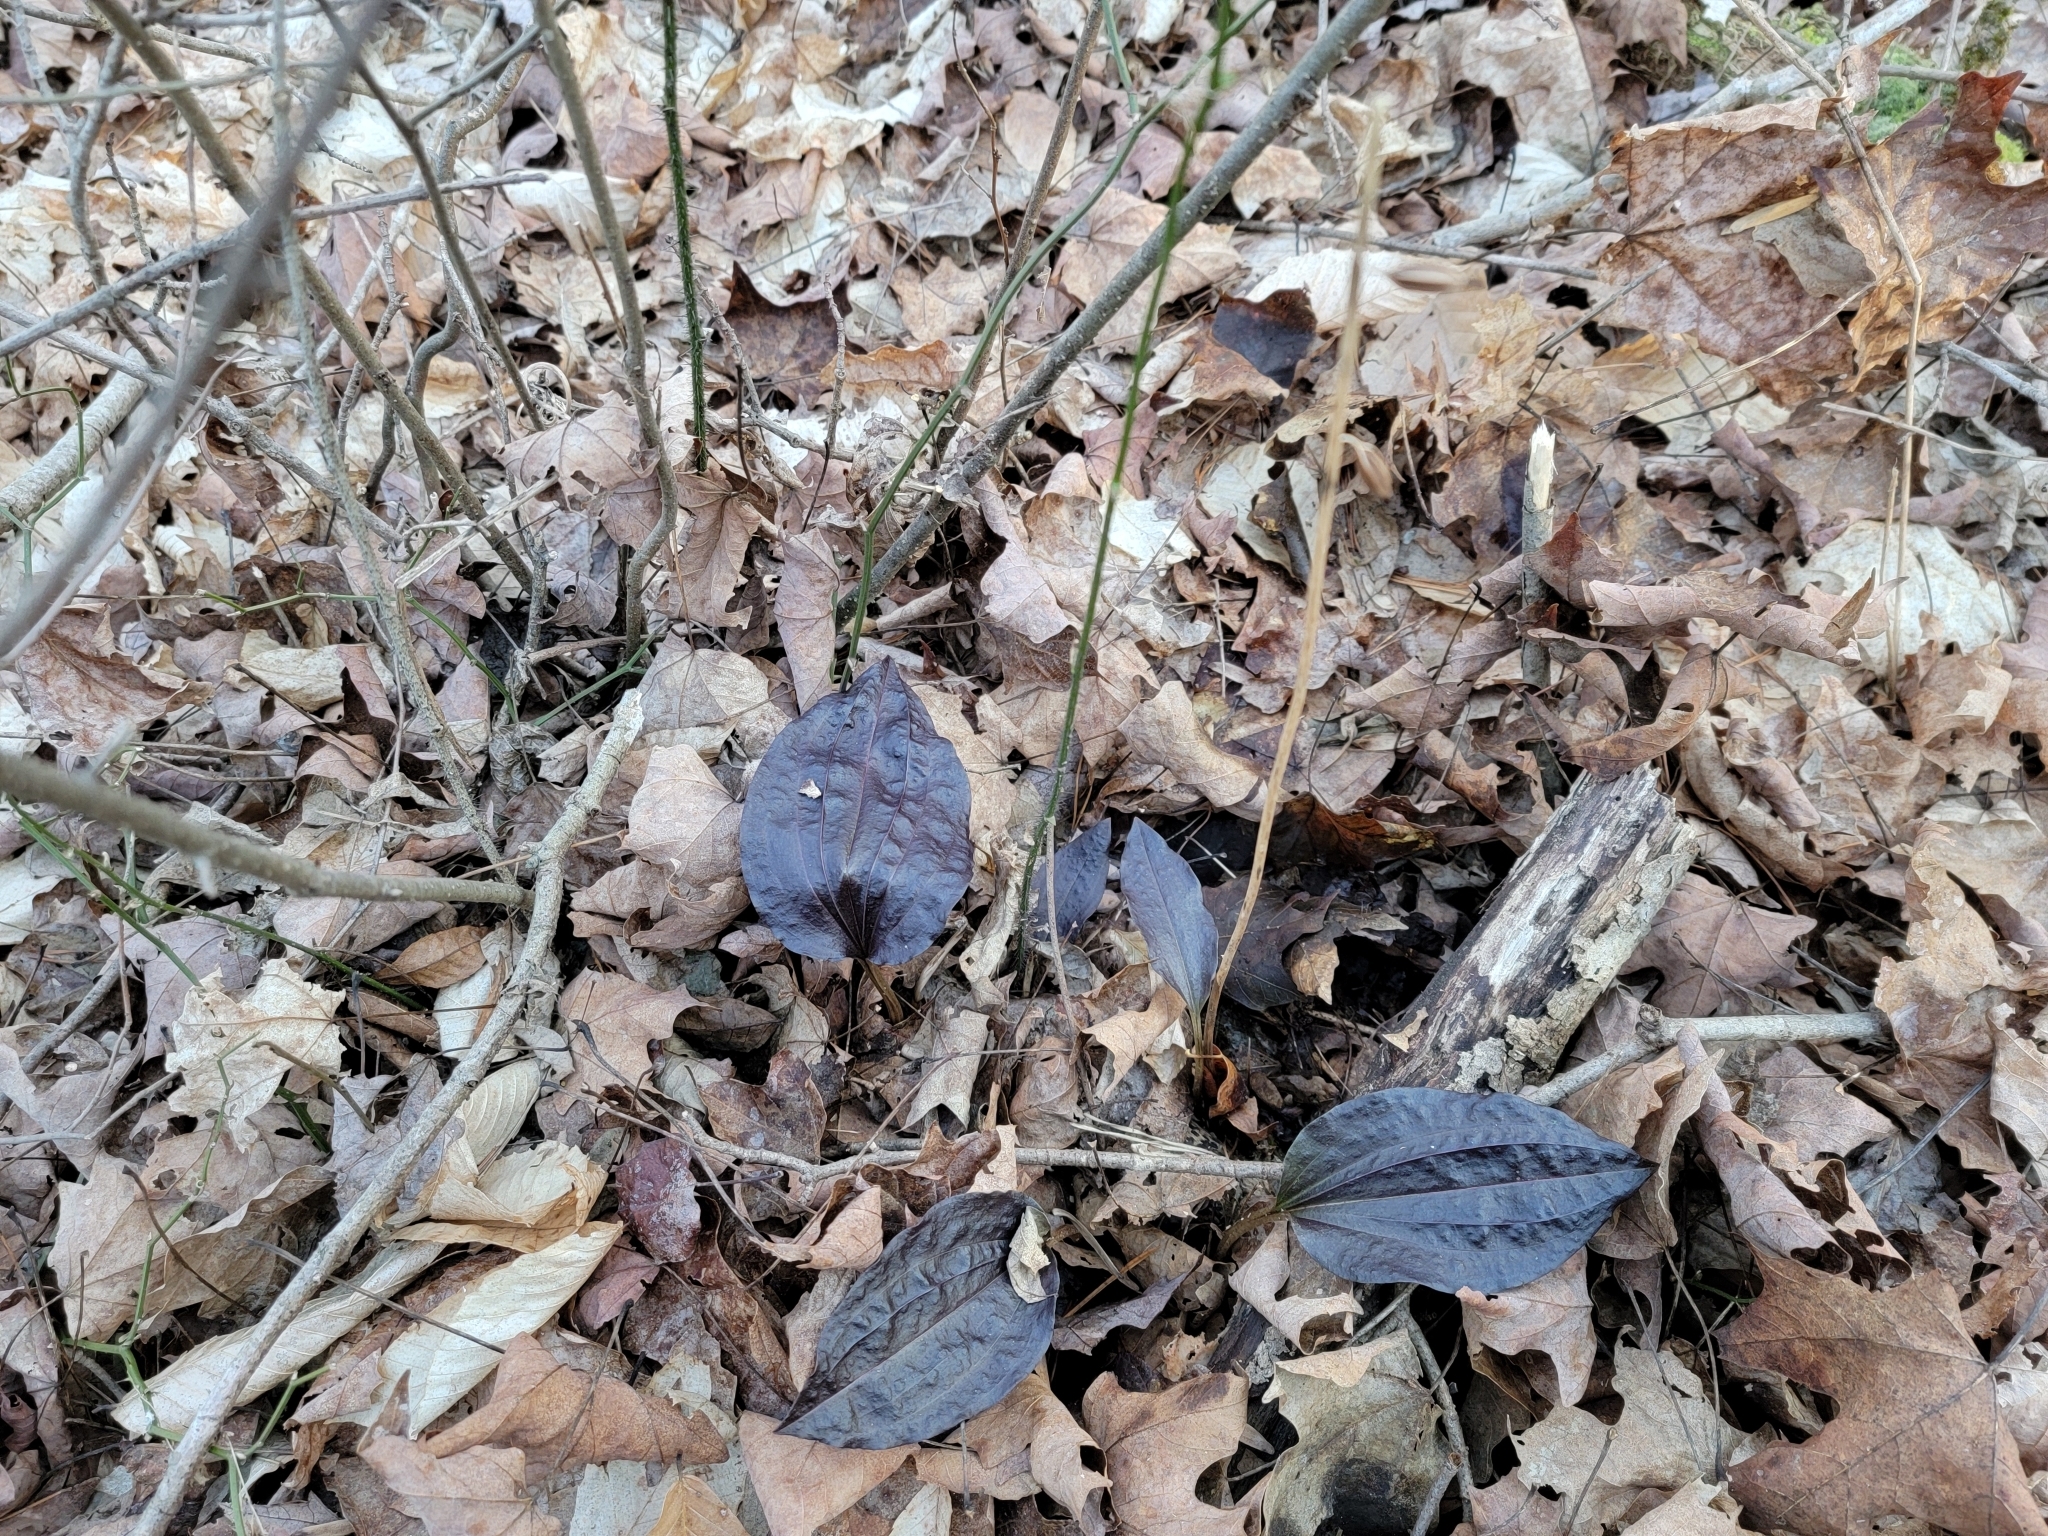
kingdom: Plantae
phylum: Tracheophyta
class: Liliopsida
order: Asparagales
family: Orchidaceae
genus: Tipularia
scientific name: Tipularia discolor
